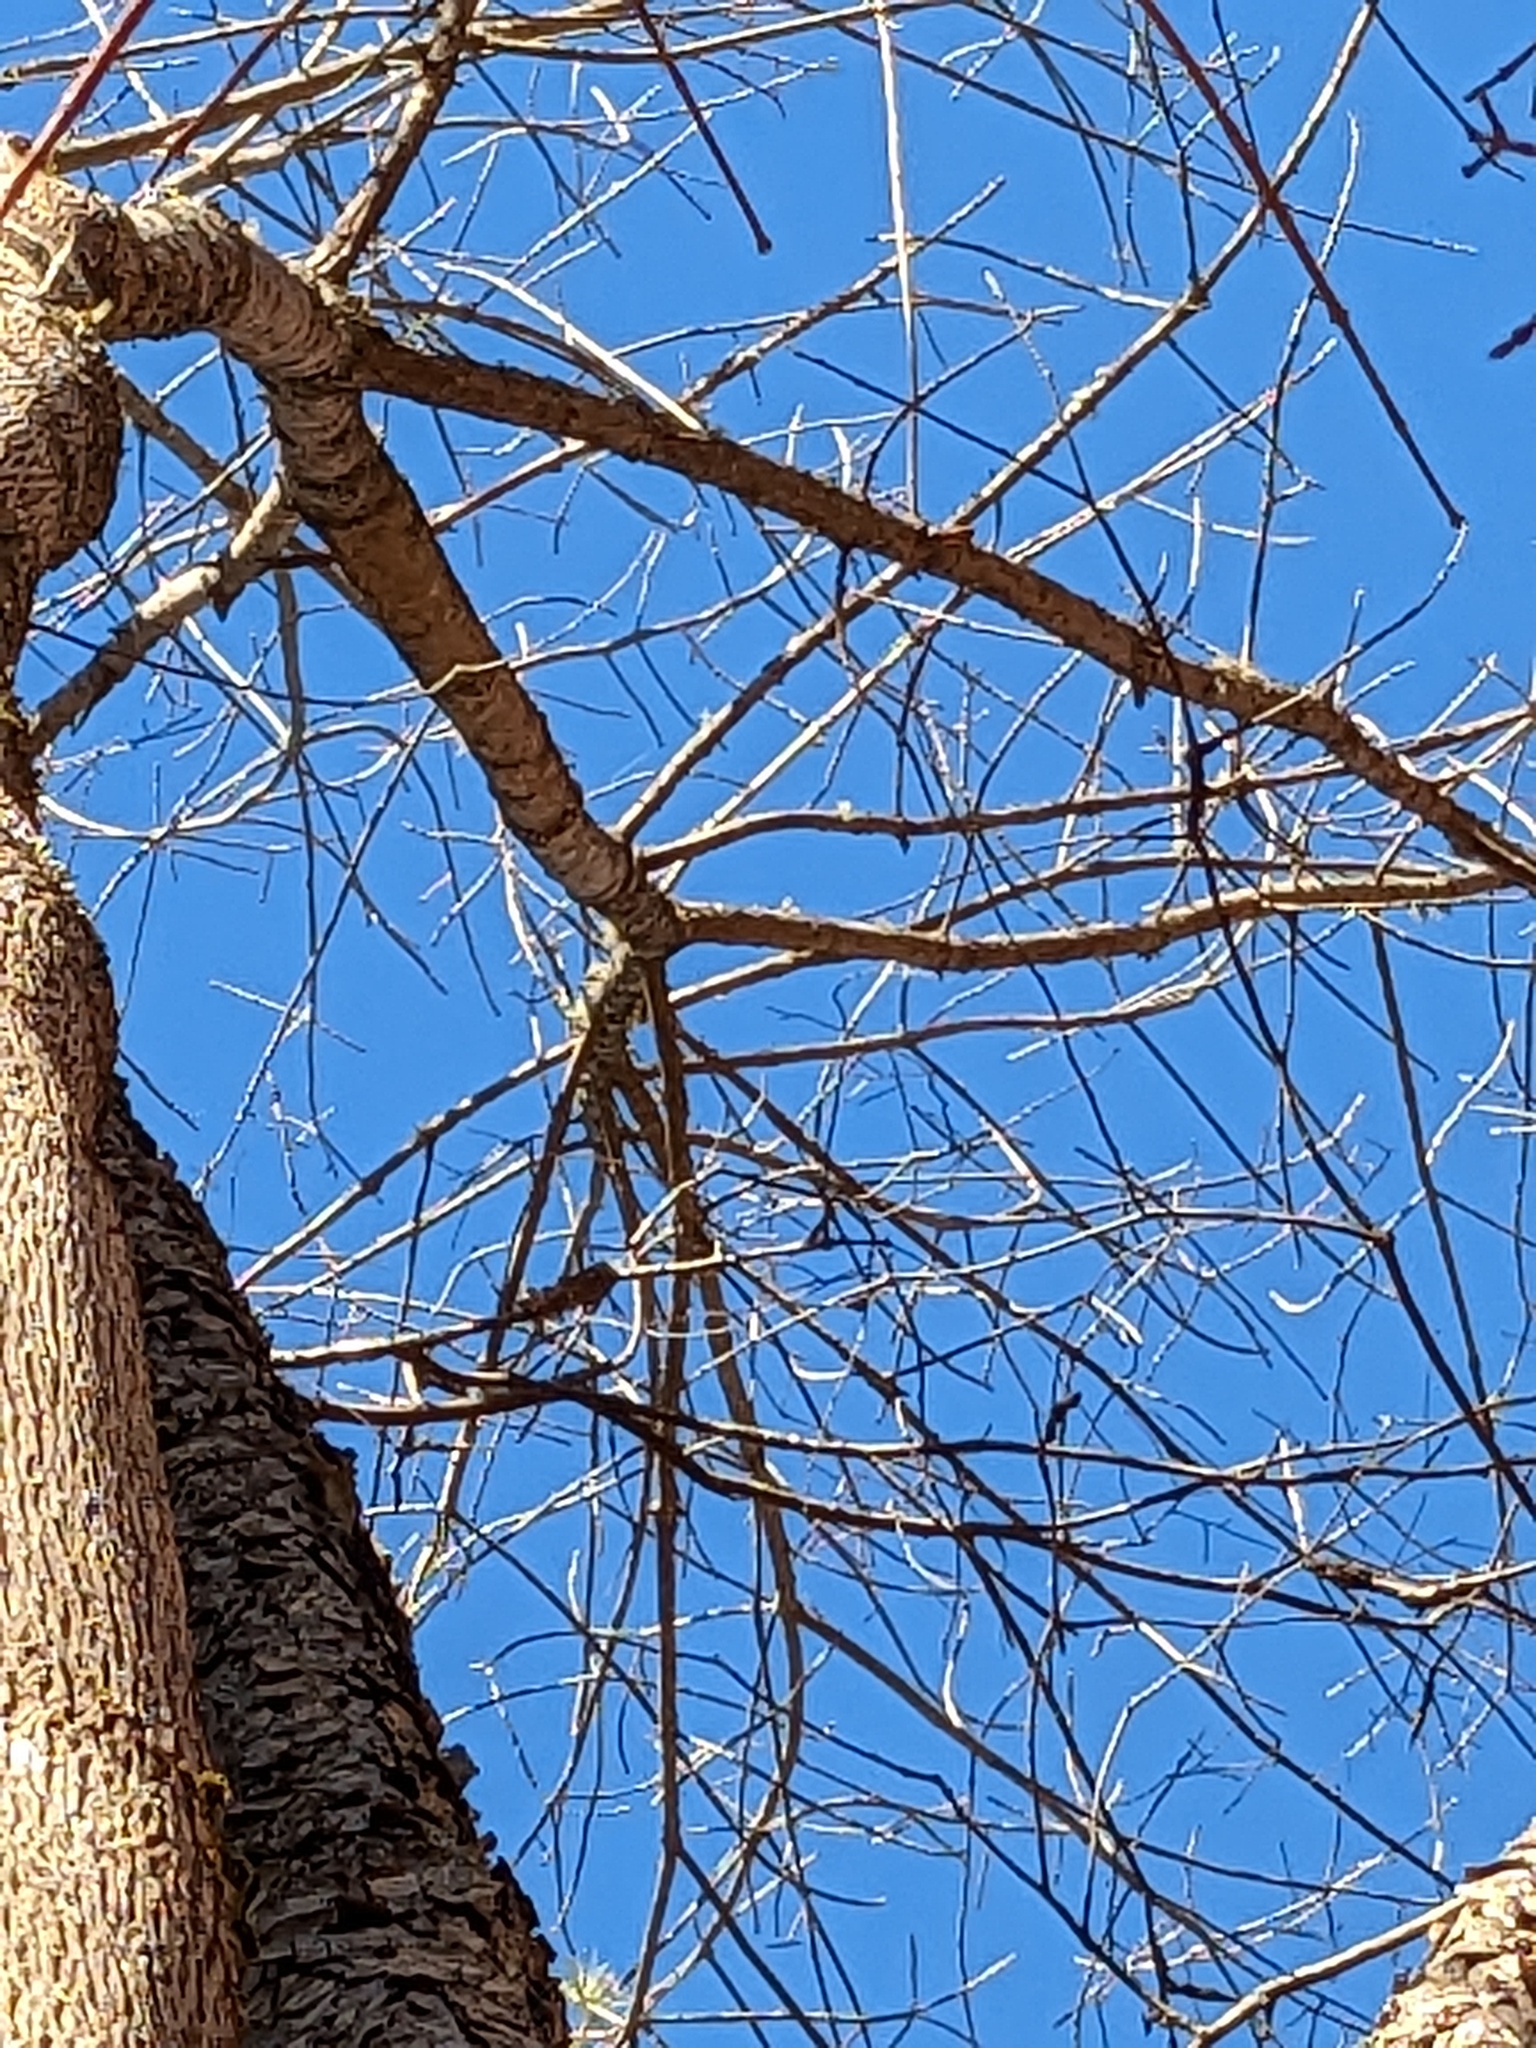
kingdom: Plantae
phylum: Tracheophyta
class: Magnoliopsida
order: Lamiales
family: Oleaceae
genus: Fraxinus
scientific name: Fraxinus americana
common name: White ash
